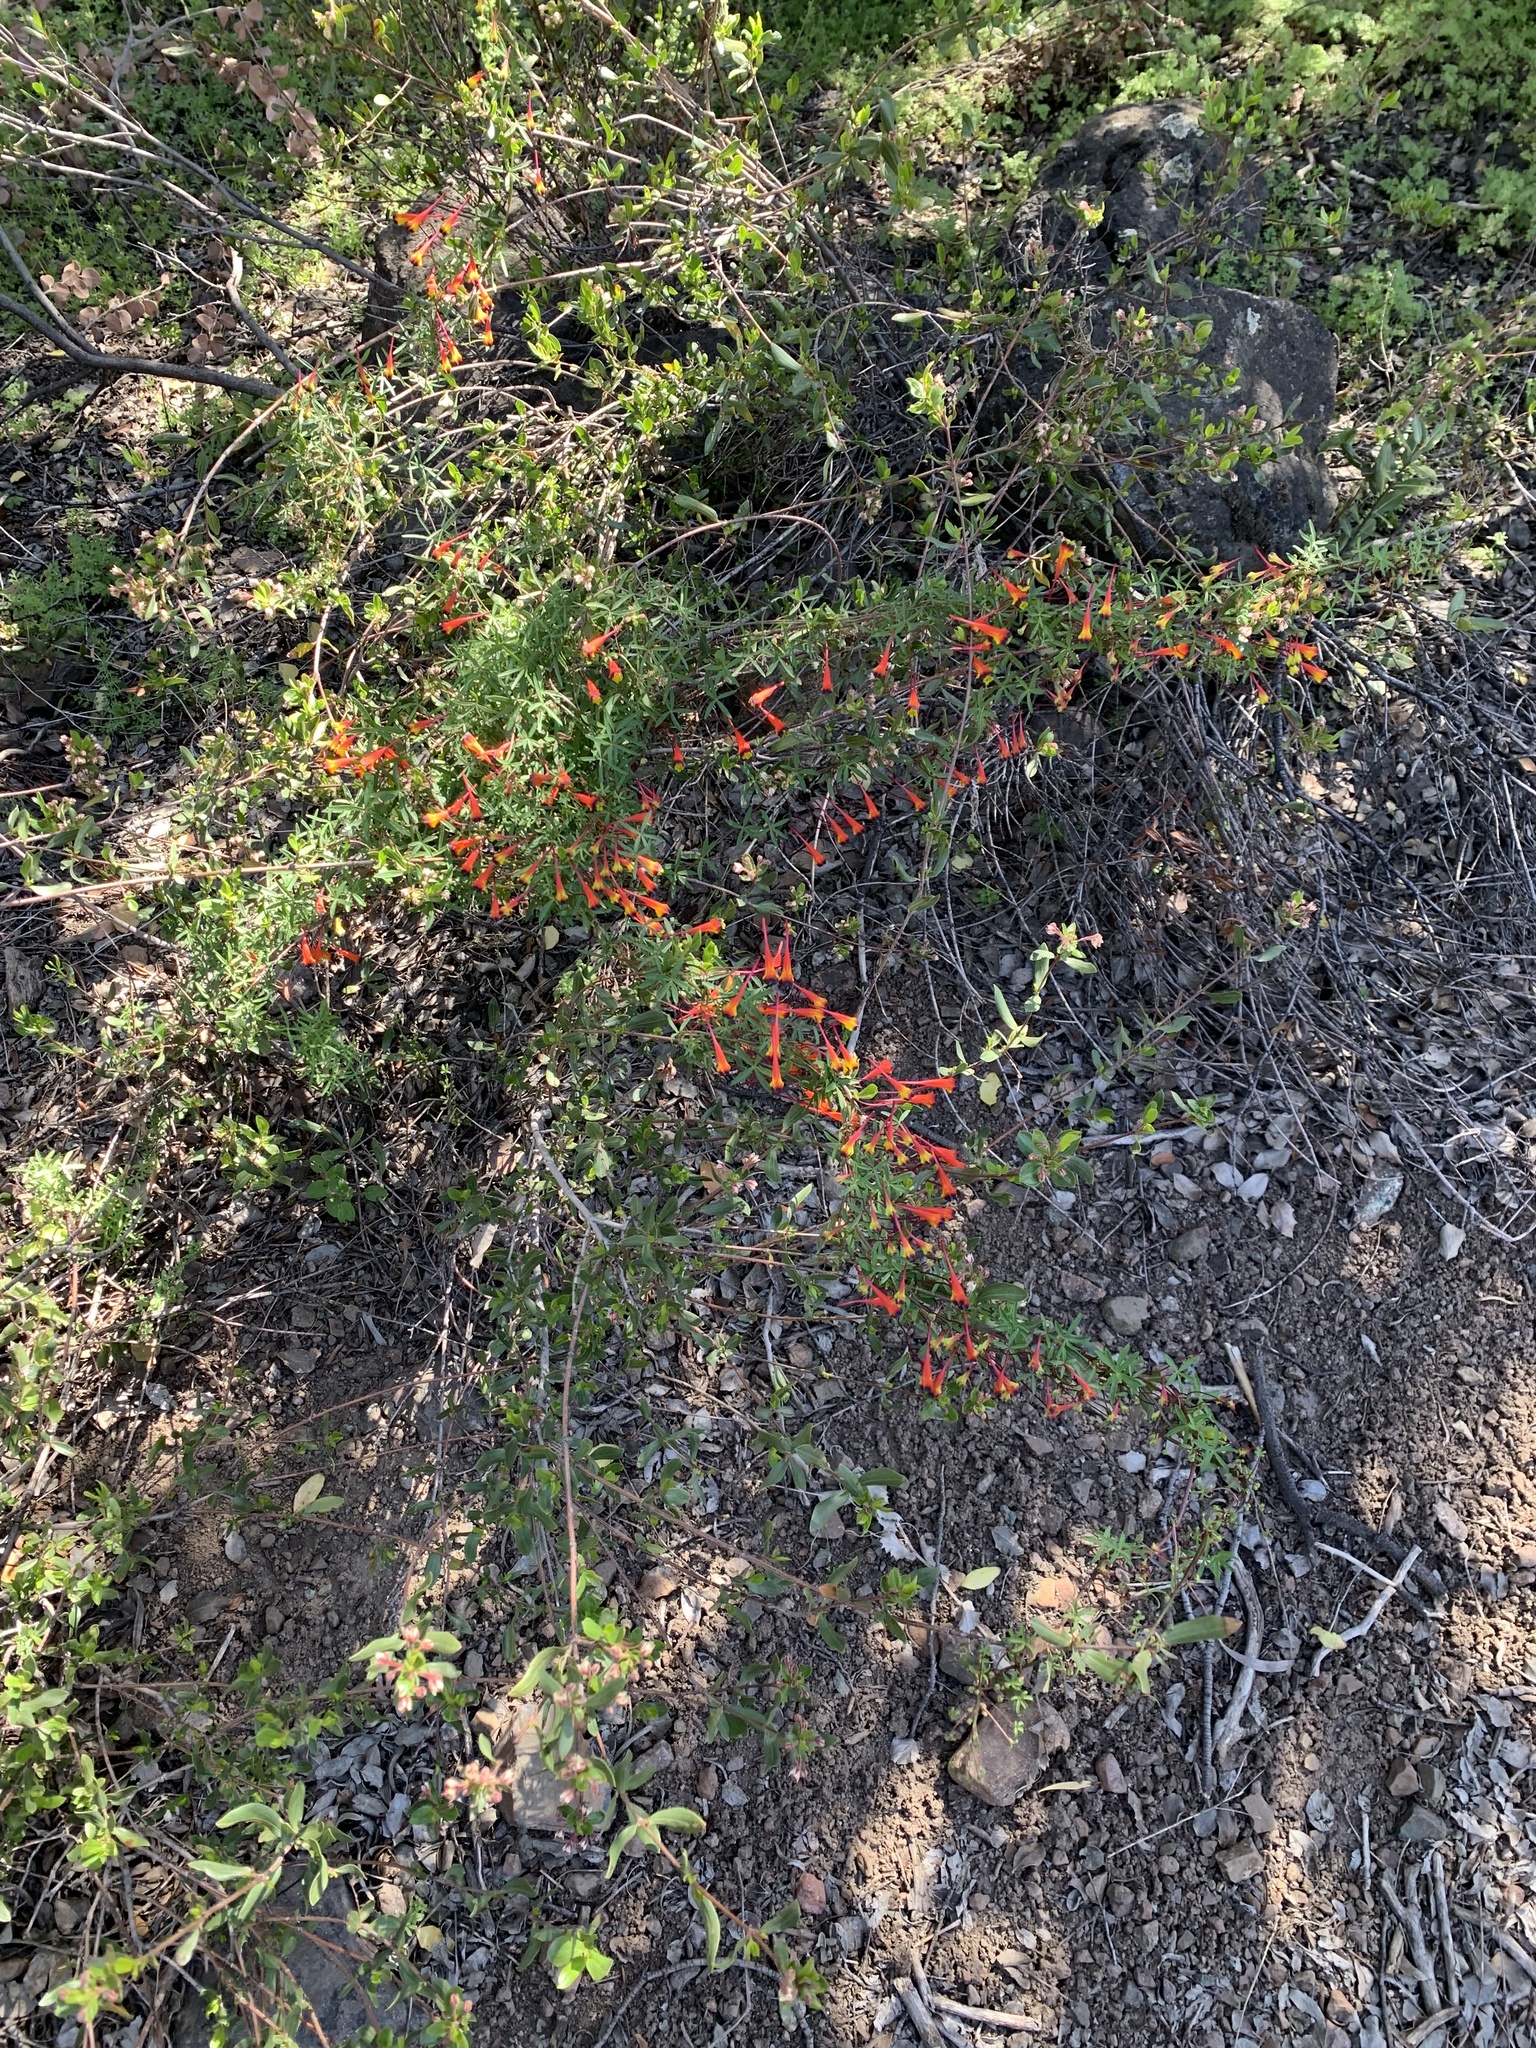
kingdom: Plantae
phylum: Tracheophyta
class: Magnoliopsida
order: Brassicales
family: Tropaeolaceae
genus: Tropaeolum
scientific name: Tropaeolum tricolor
